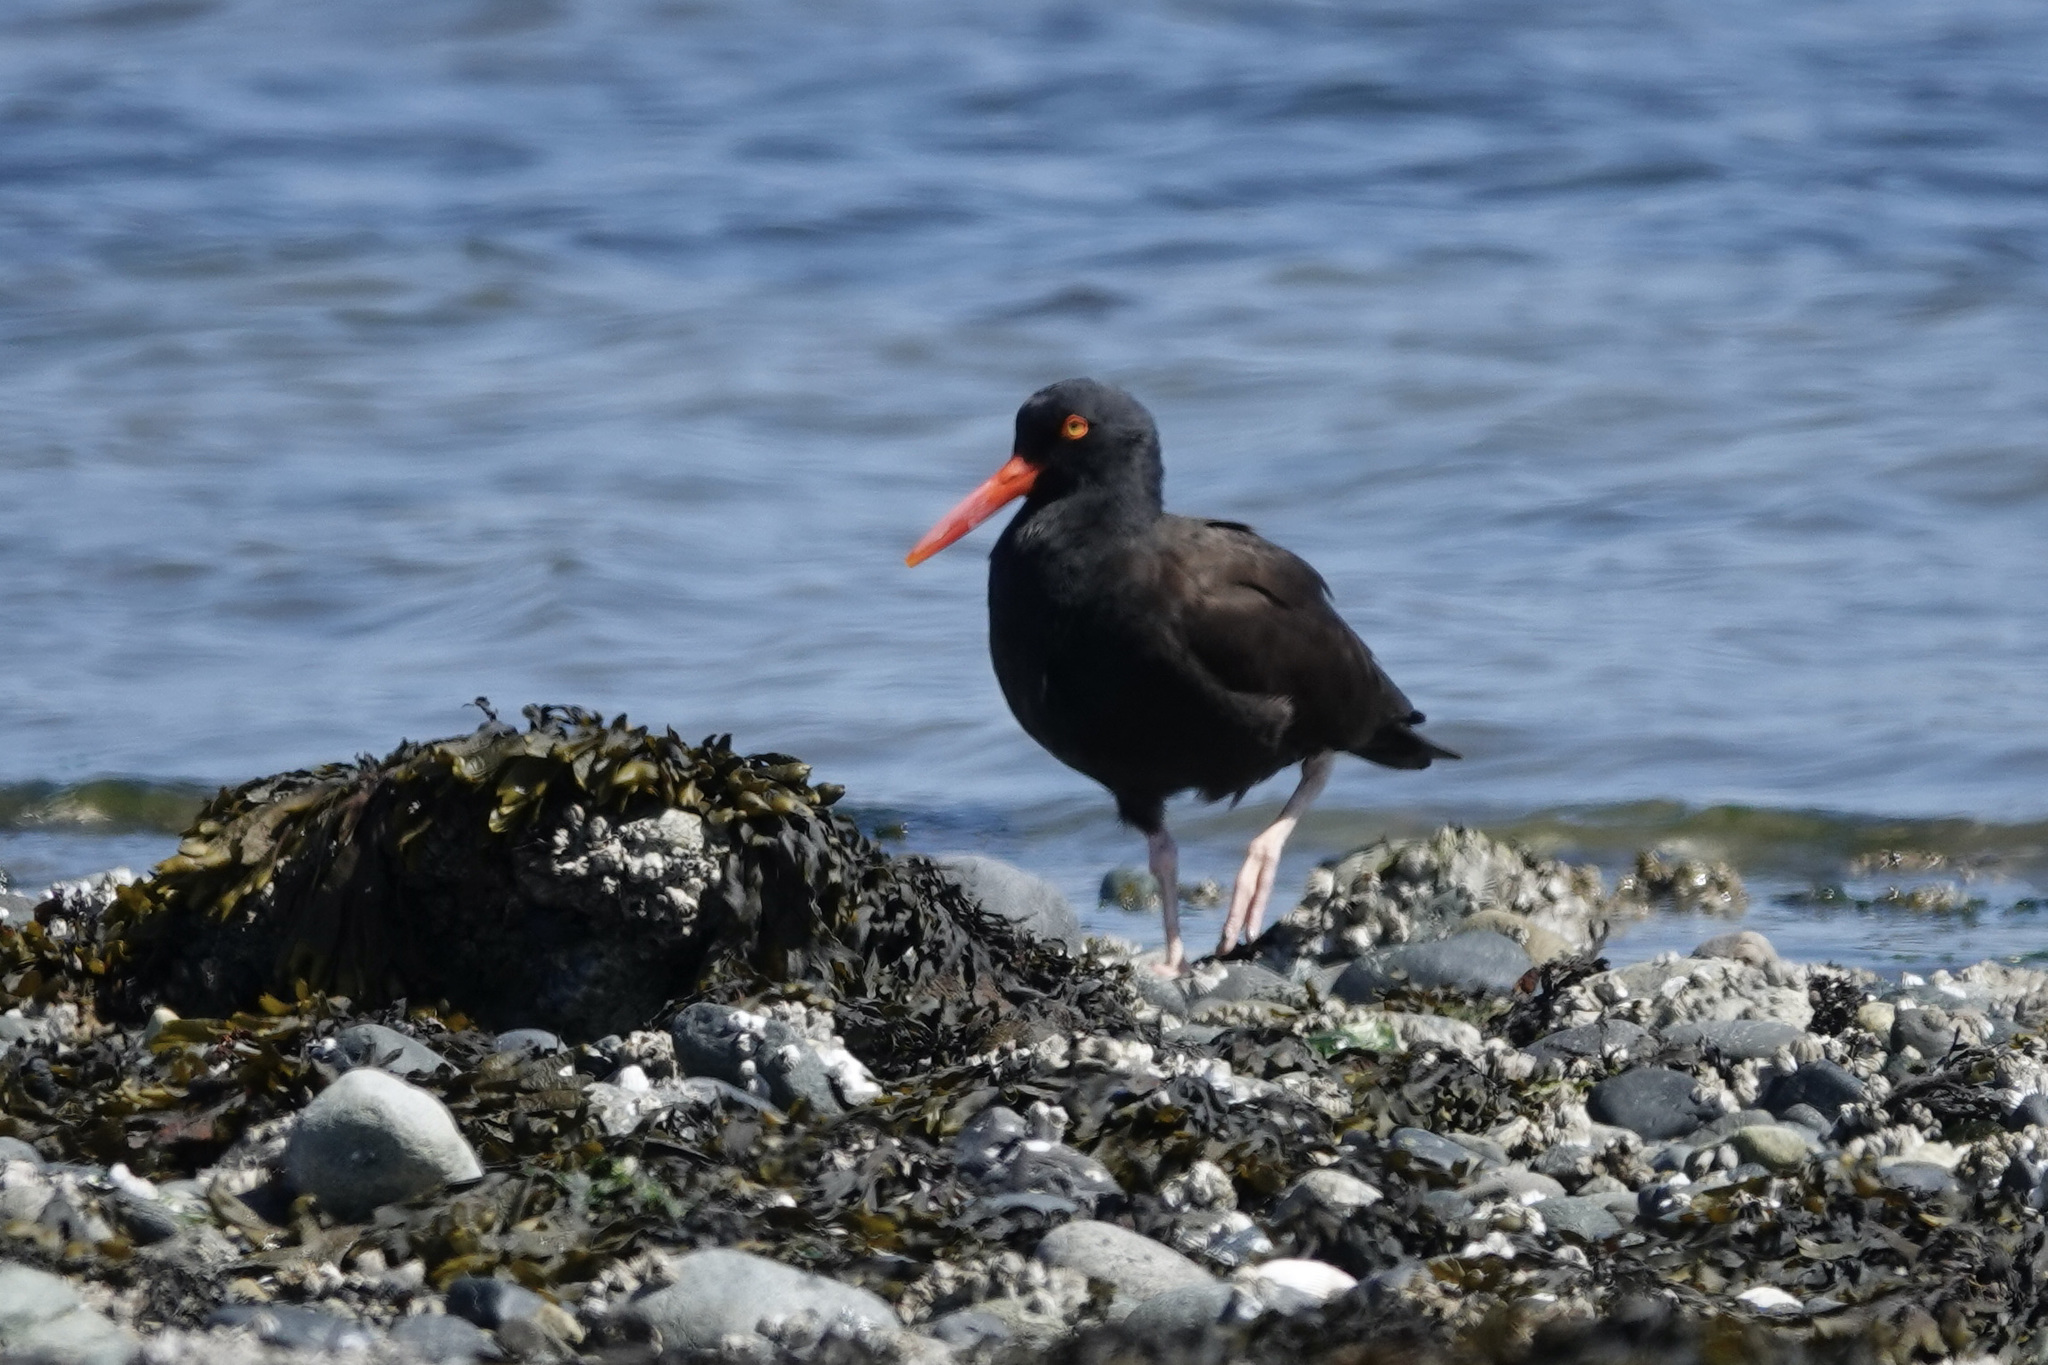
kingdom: Animalia
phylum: Chordata
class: Aves
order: Charadriiformes
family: Haematopodidae
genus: Haematopus
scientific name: Haematopus bachmani
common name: Black oystercatcher
